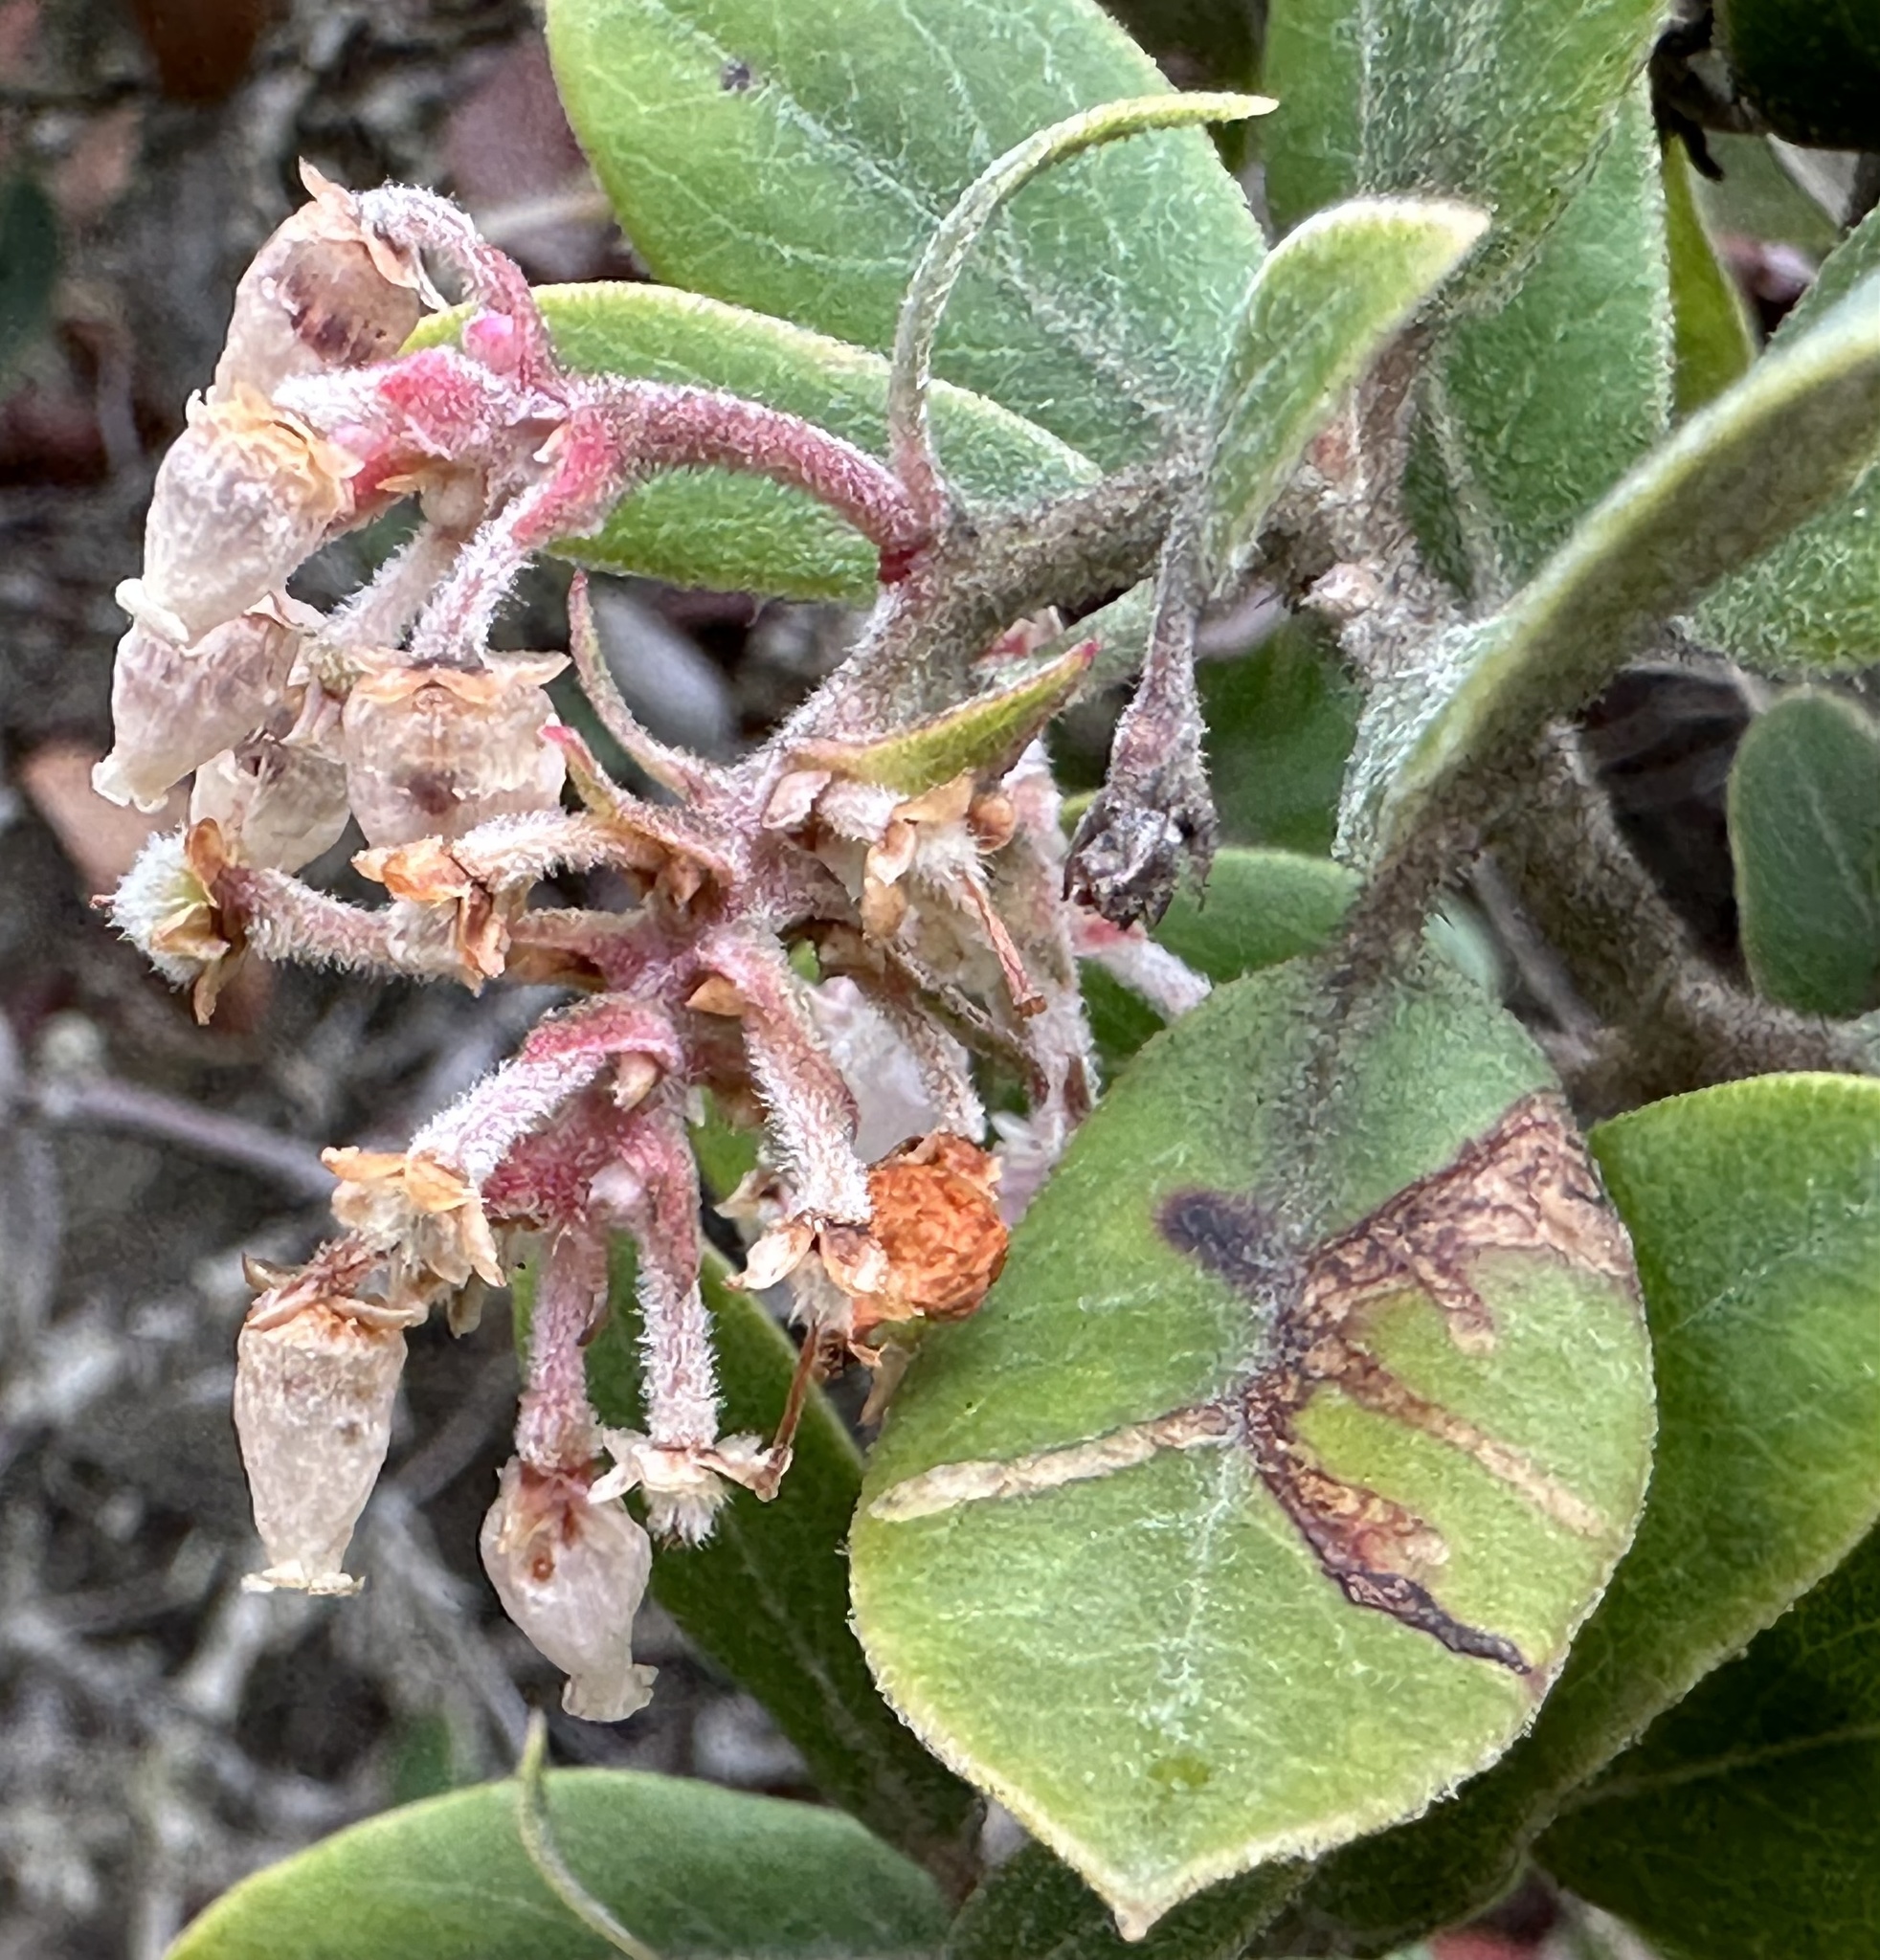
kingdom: Plantae
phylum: Tracheophyta
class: Magnoliopsida
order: Ericales
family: Ericaceae
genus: Arctostaphylos
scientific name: Arctostaphylos tomentosa
